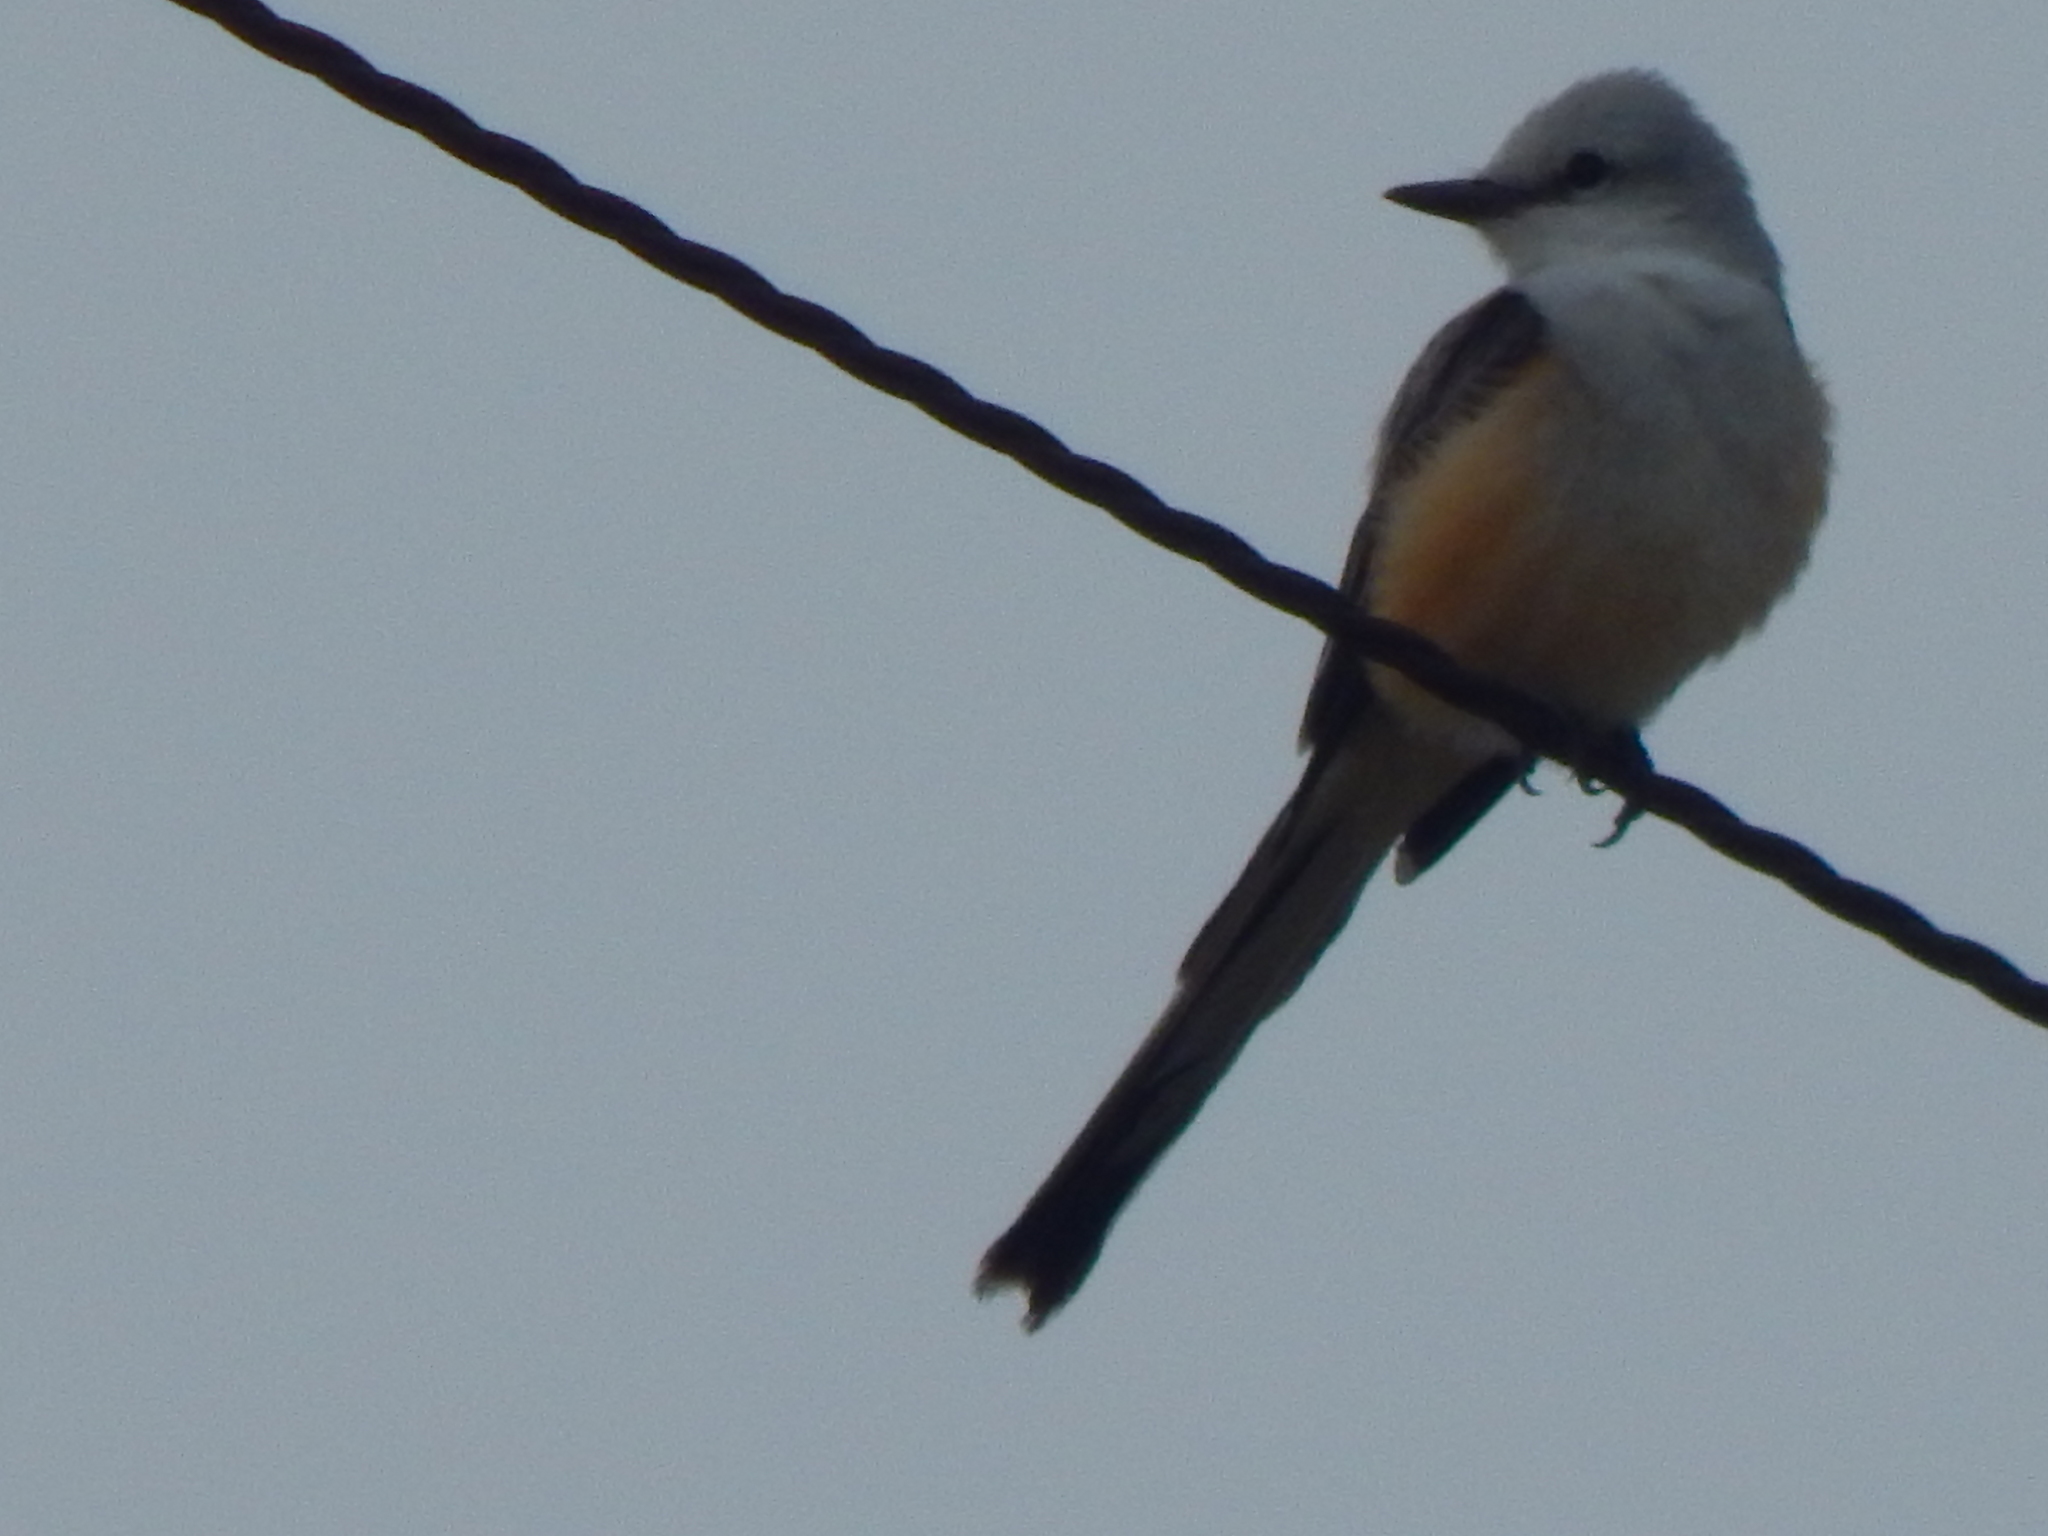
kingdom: Animalia
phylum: Chordata
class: Aves
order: Passeriformes
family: Tyrannidae
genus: Tyrannus
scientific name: Tyrannus forficatus
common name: Scissor-tailed flycatcher
